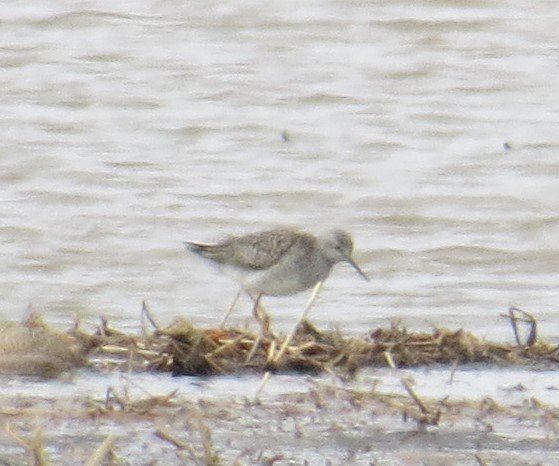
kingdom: Animalia
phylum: Chordata
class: Aves
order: Charadriiformes
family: Scolopacidae
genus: Tringa
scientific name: Tringa flavipes
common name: Lesser yellowlegs
